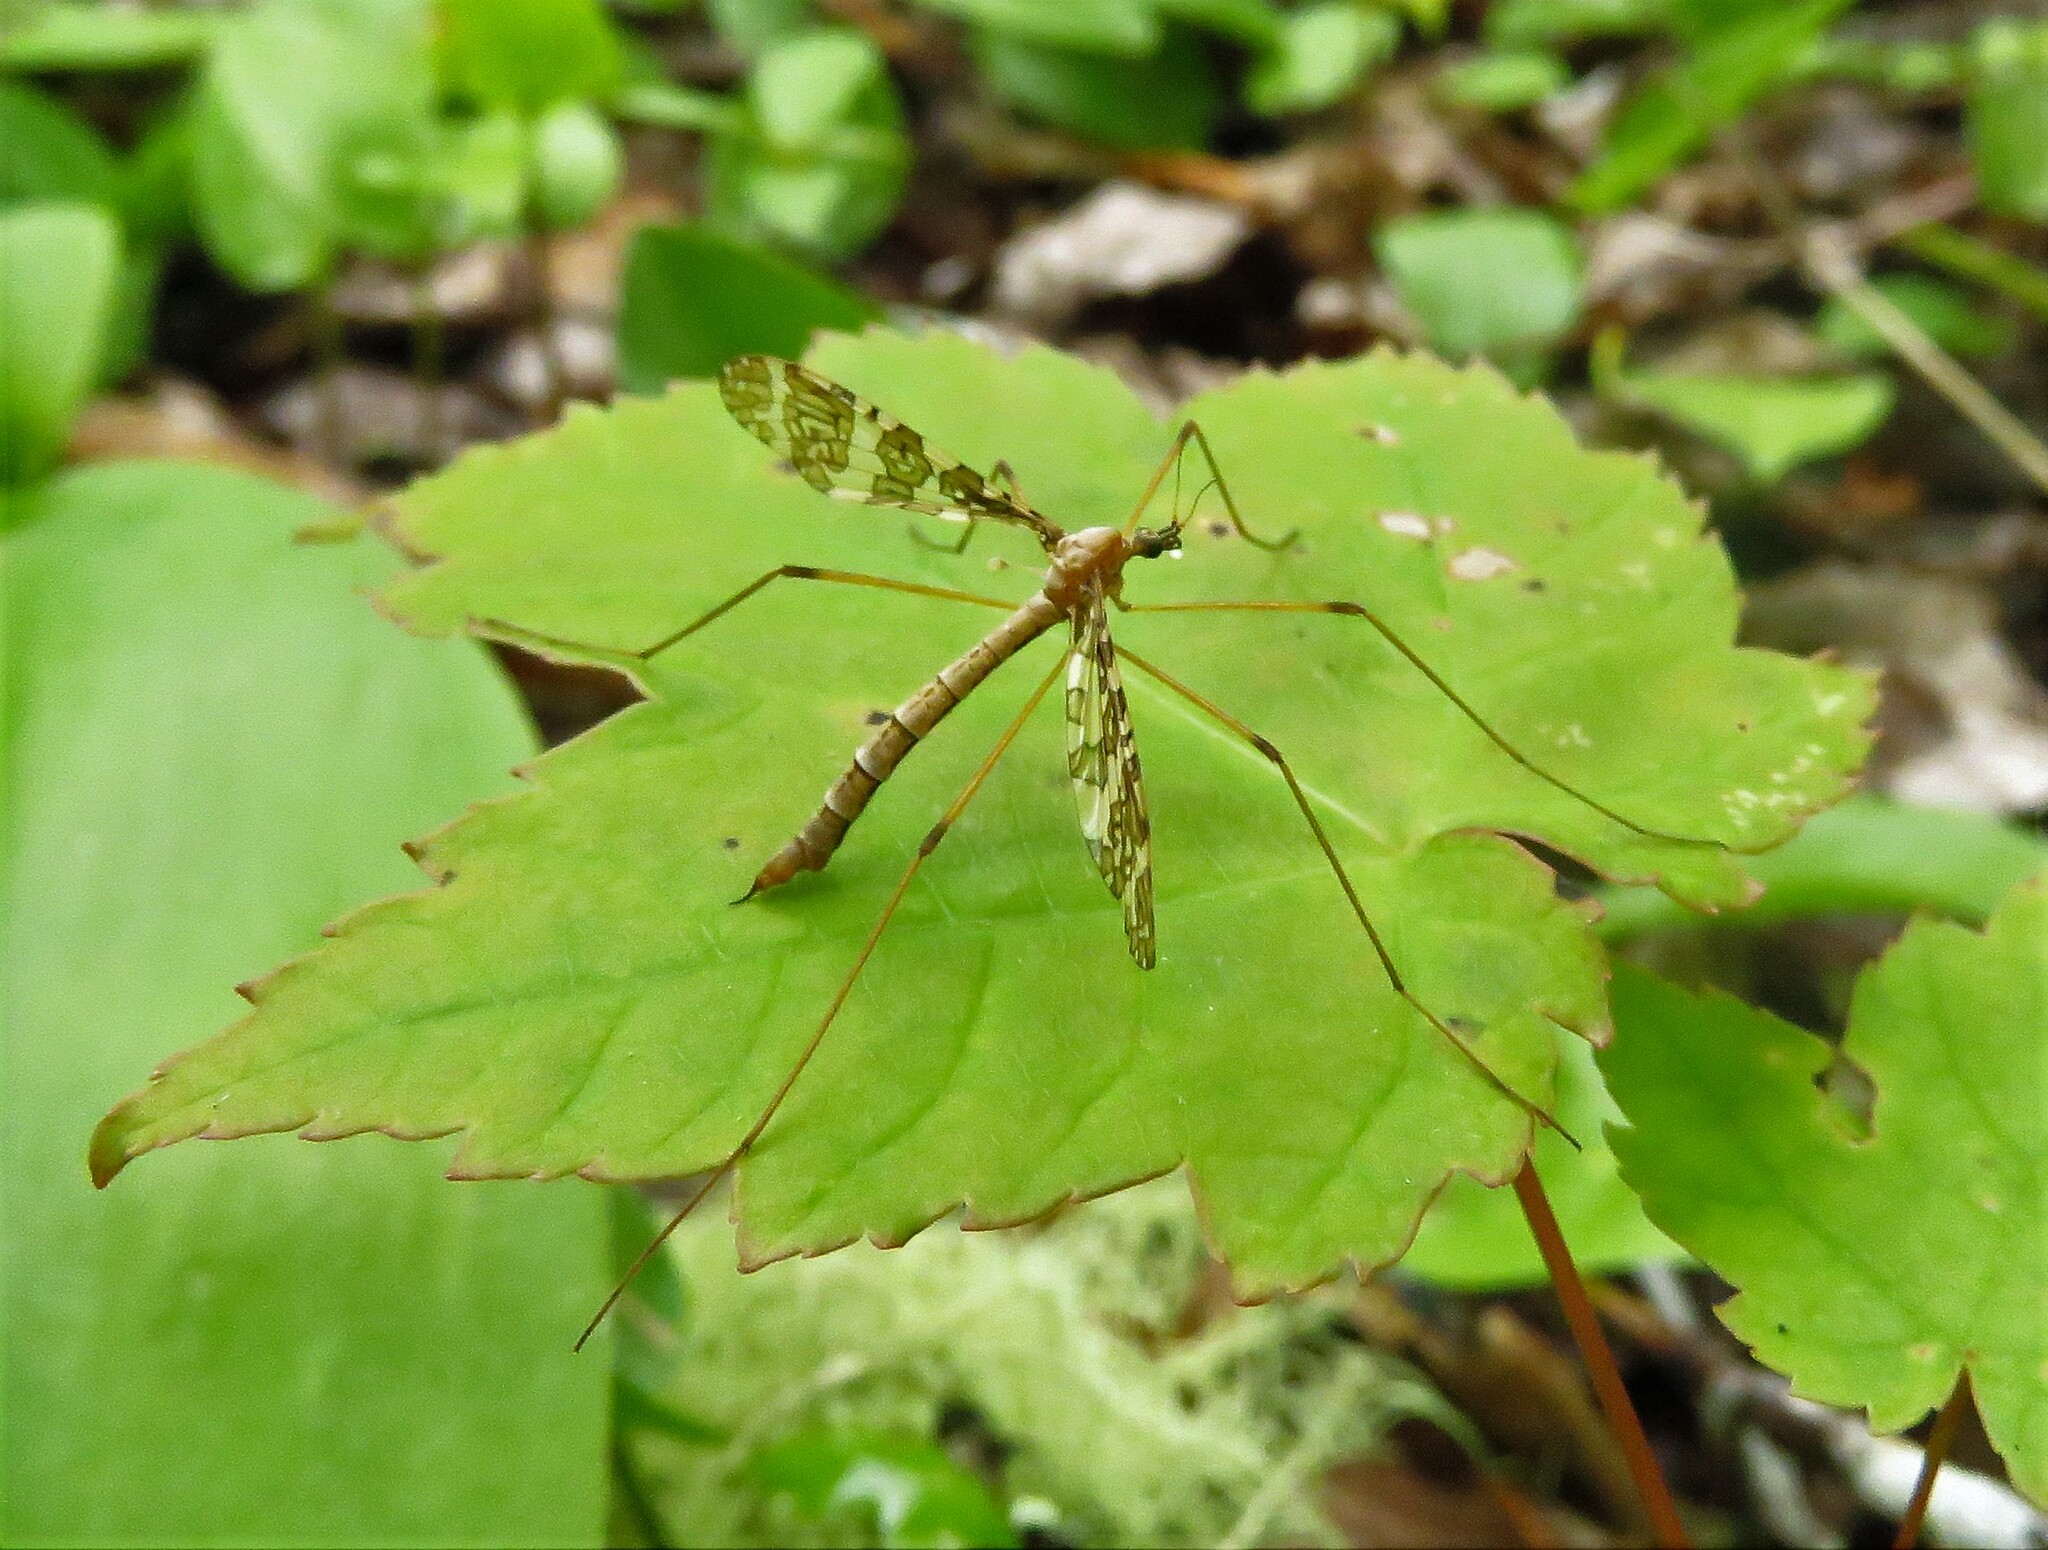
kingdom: Animalia
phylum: Arthropoda
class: Insecta
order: Diptera
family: Limoniidae
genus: Epiphragma
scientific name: Epiphragma fasciapenne
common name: Band-winged crane fly
